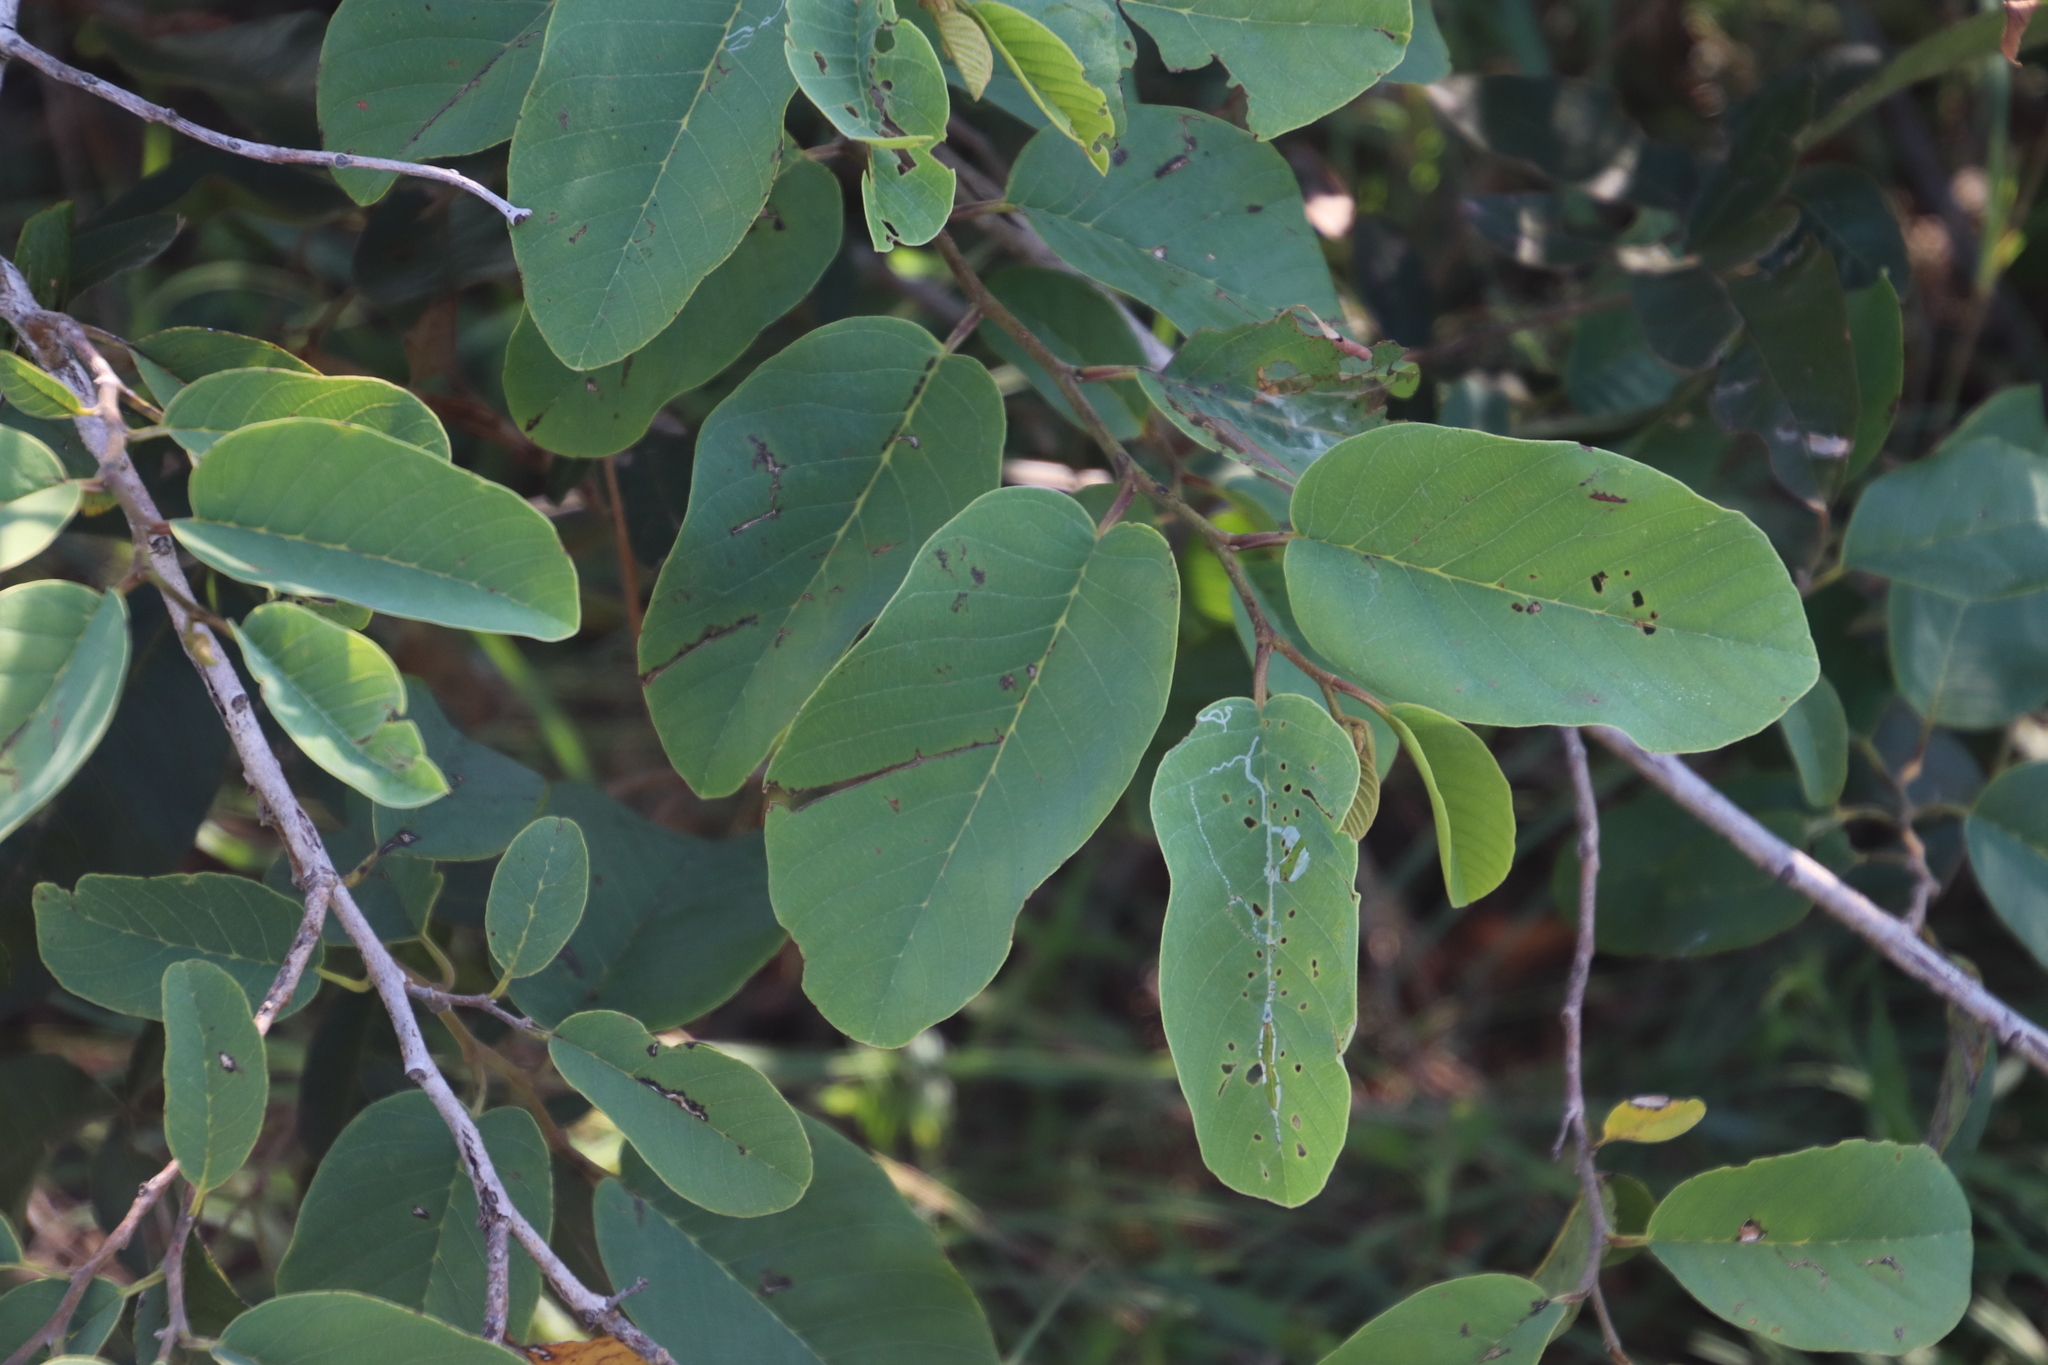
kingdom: Plantae
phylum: Tracheophyta
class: Magnoliopsida
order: Magnoliales
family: Annonaceae
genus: Annona
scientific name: Annona senegalensis
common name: Wild custard-apple
